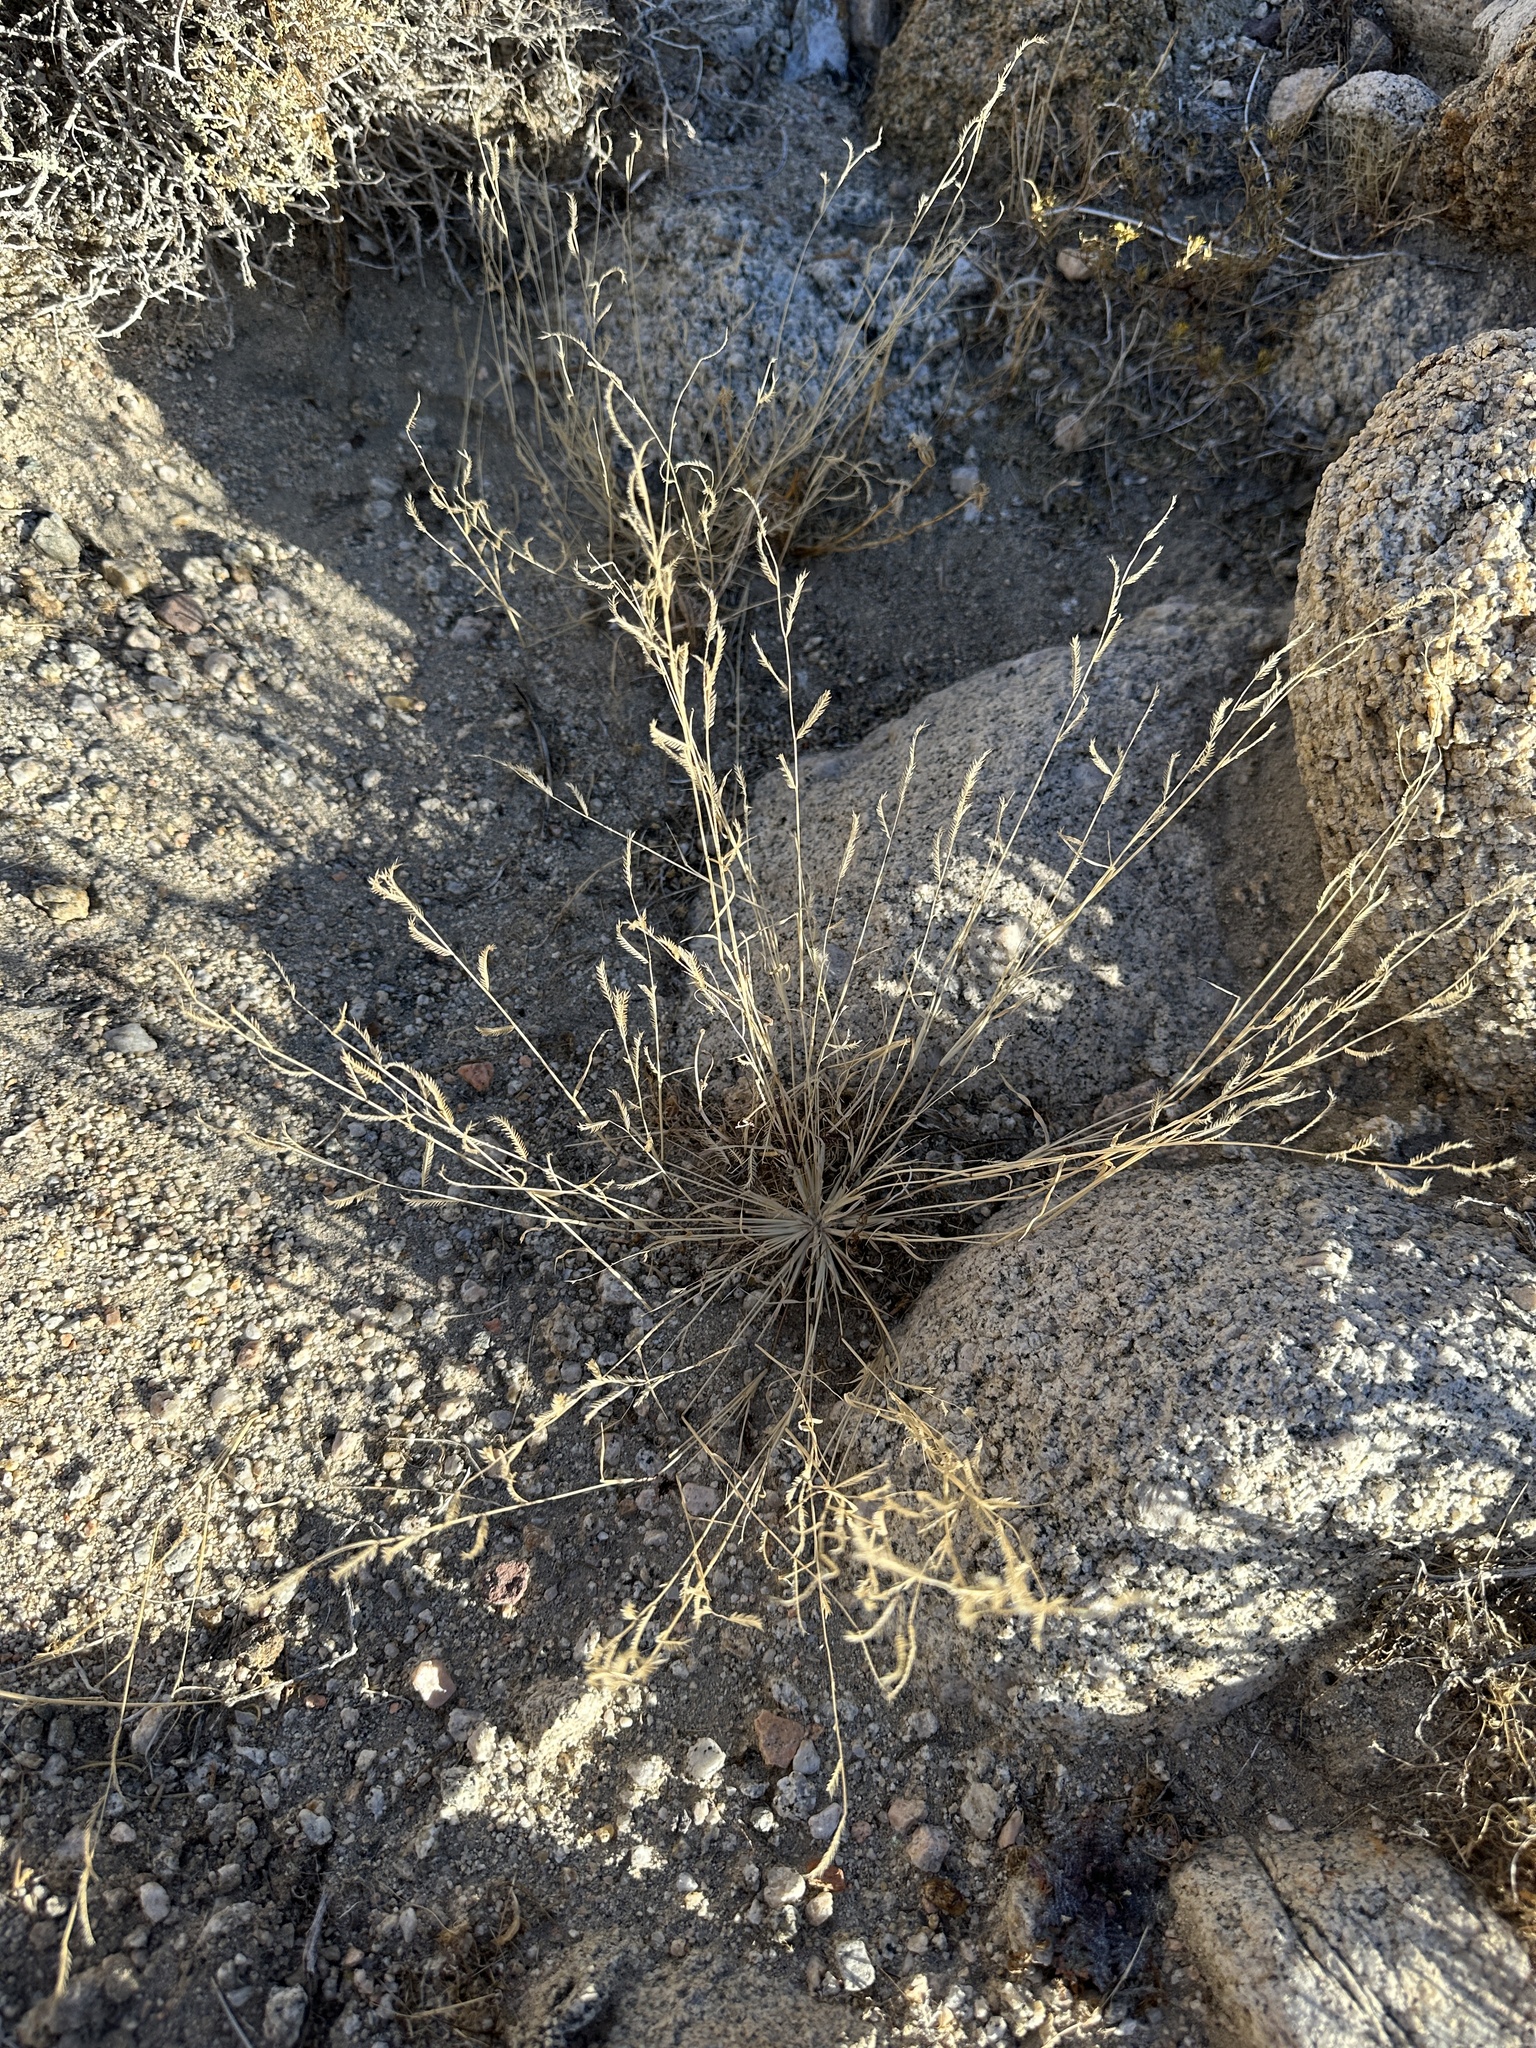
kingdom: Plantae
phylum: Tracheophyta
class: Liliopsida
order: Poales
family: Poaceae
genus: Bouteloua
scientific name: Bouteloua barbata
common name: Six-weeks grama
